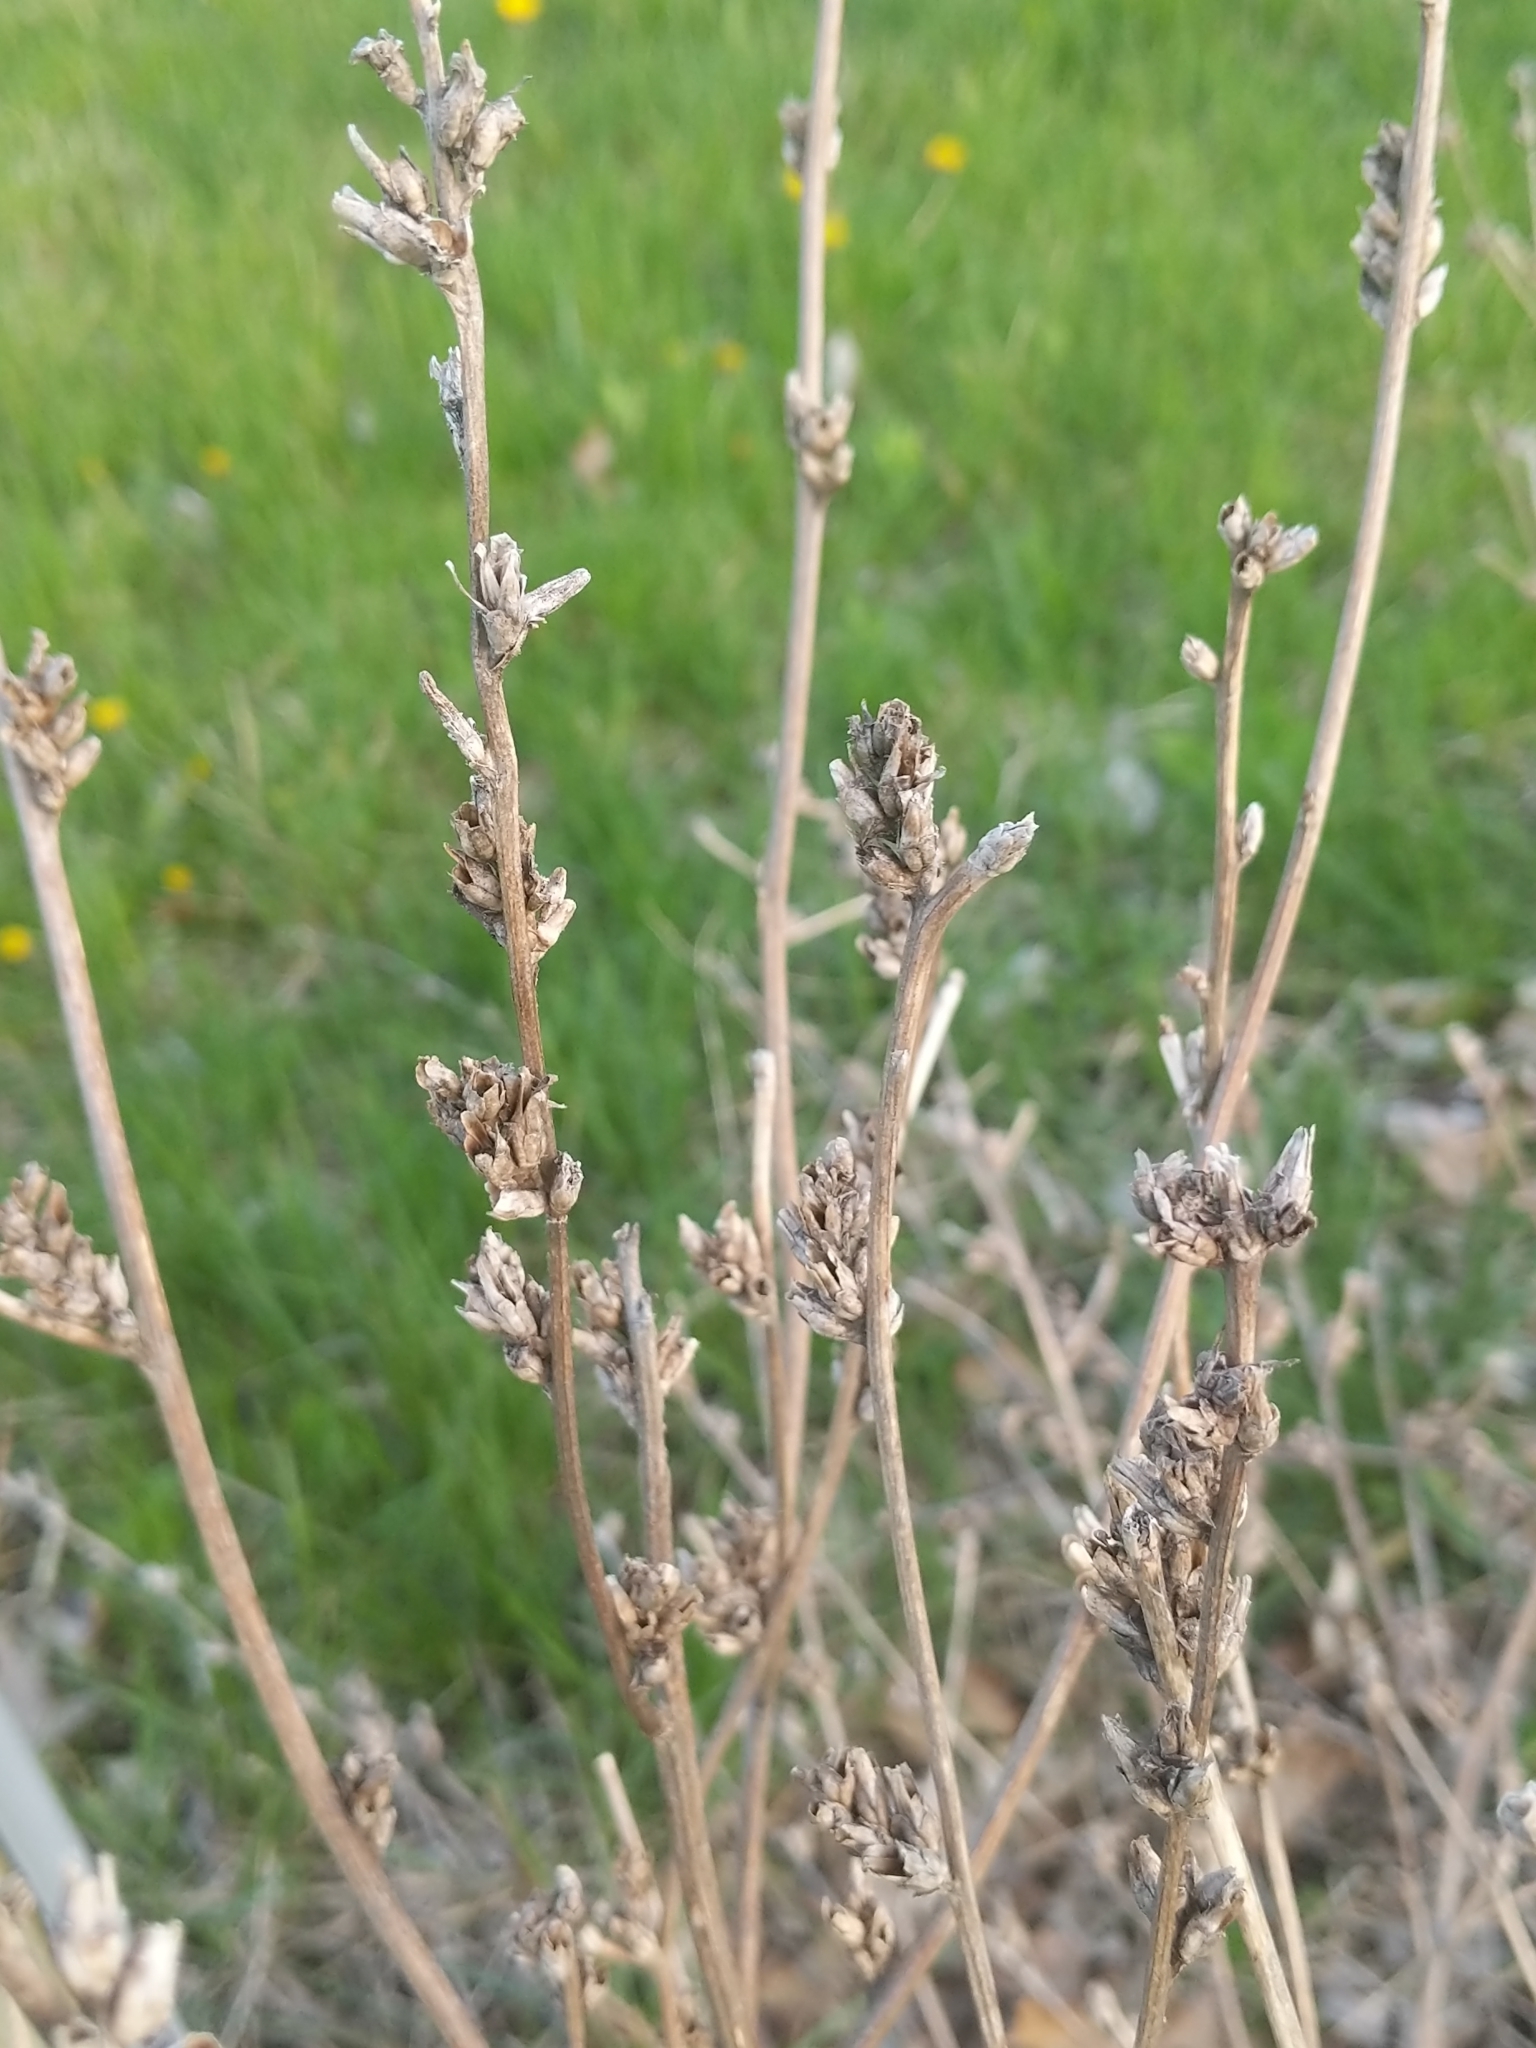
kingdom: Plantae
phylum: Tracheophyta
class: Magnoliopsida
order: Asterales
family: Asteraceae
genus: Cichorium
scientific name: Cichorium intybus
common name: Chicory
